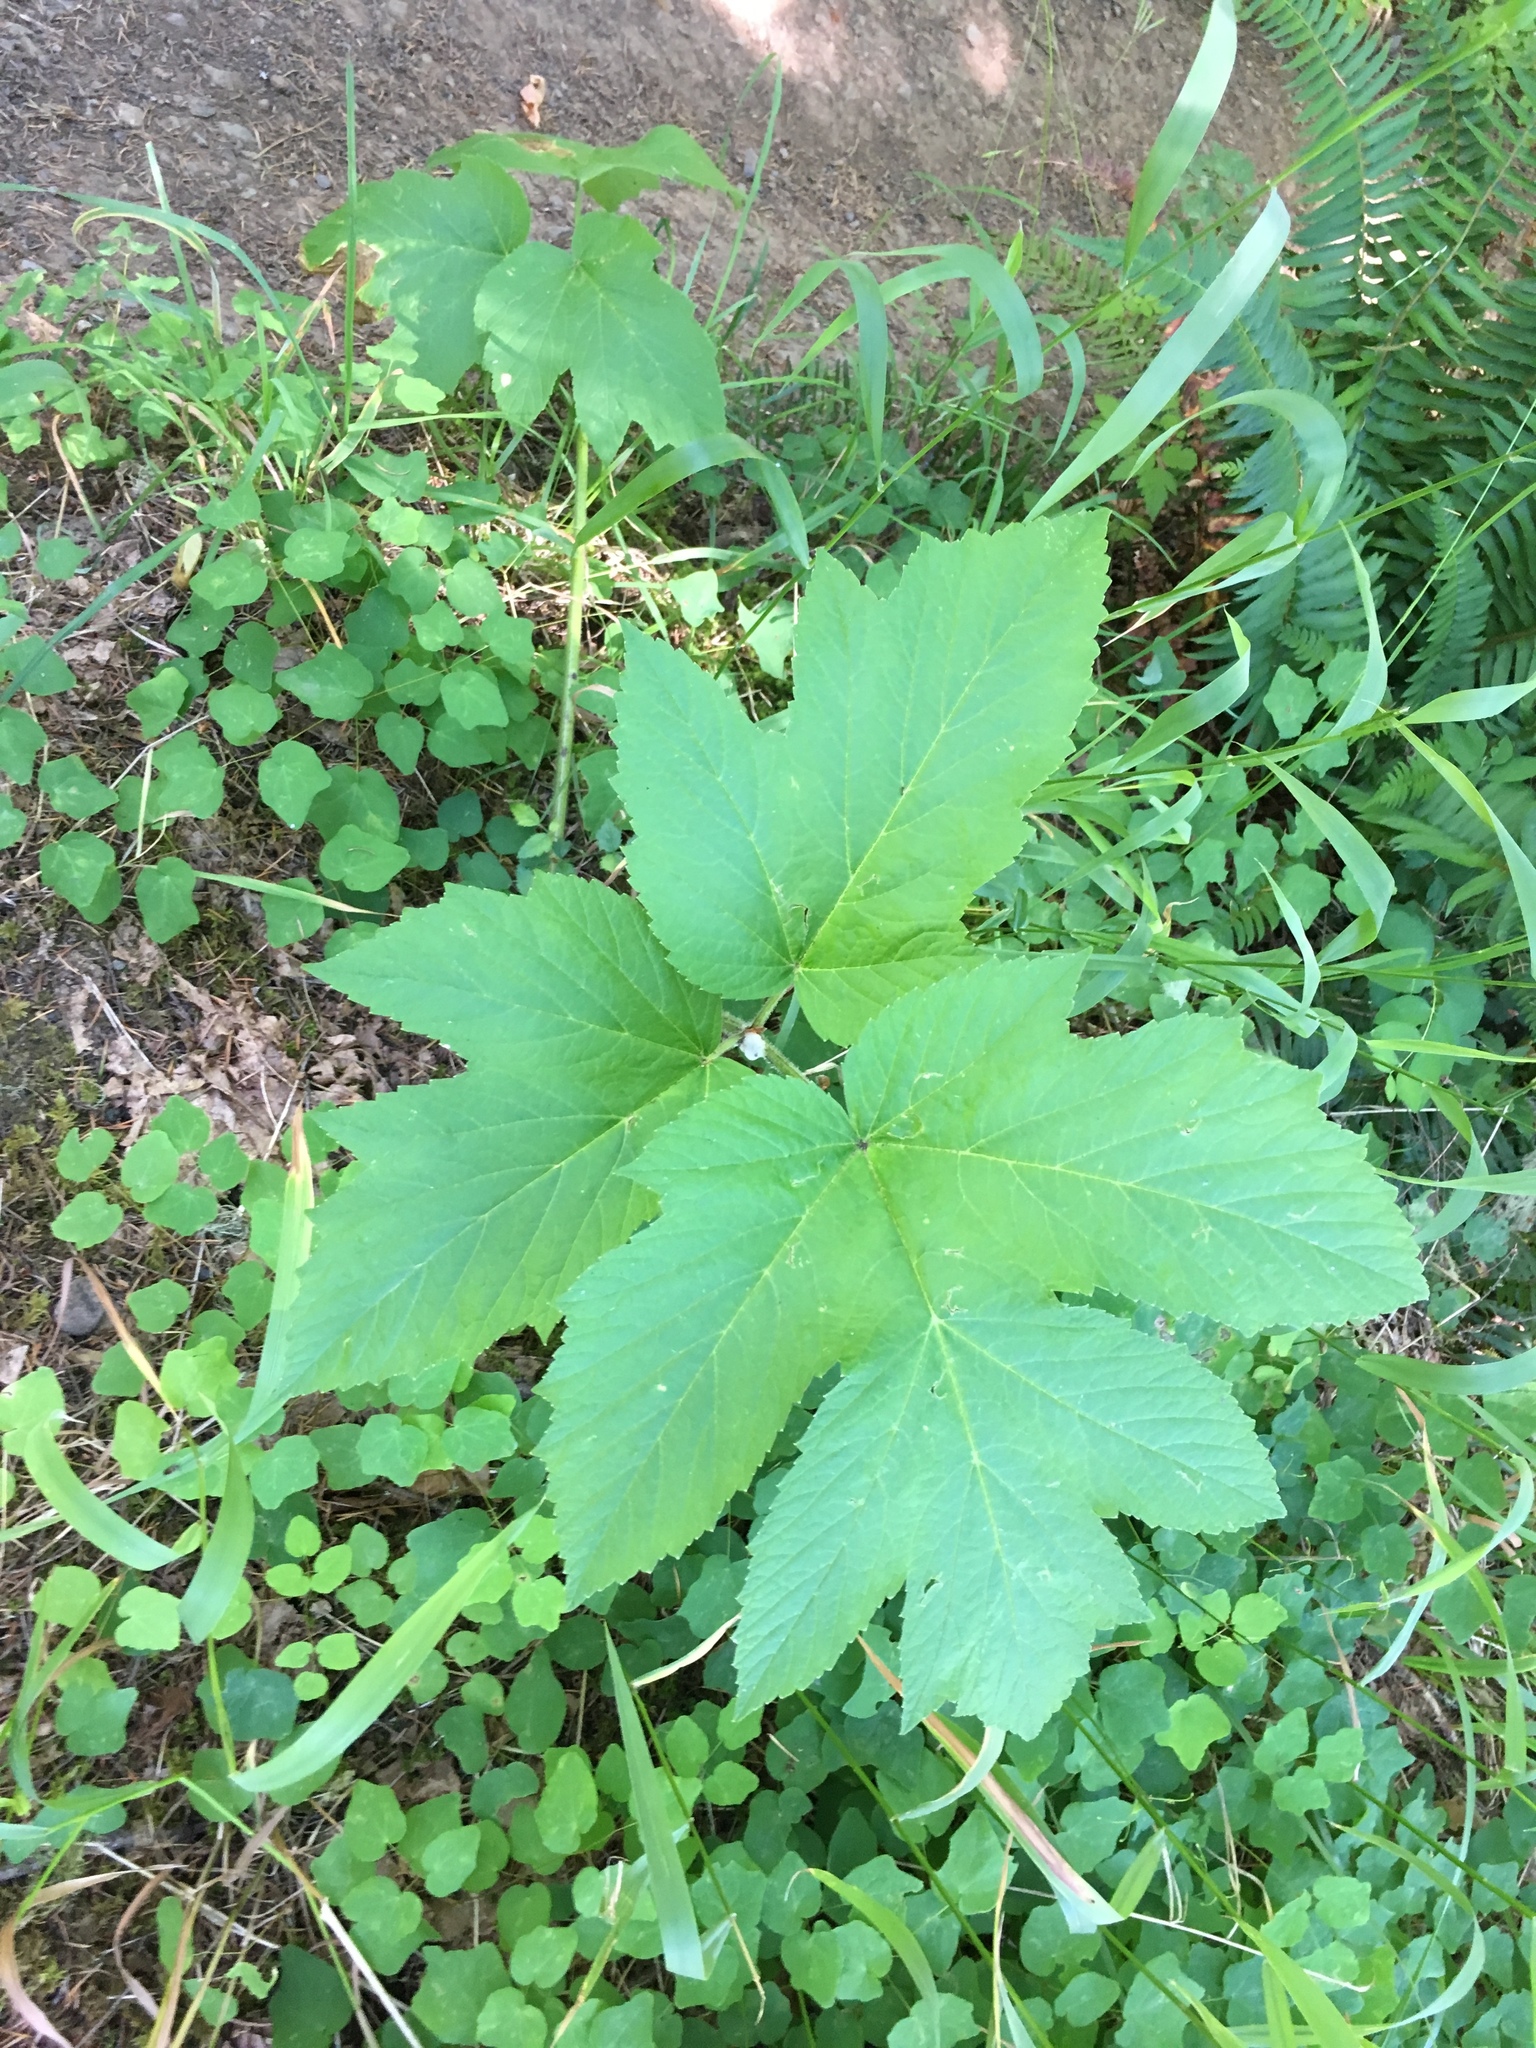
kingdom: Plantae
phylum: Tracheophyta
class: Magnoliopsida
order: Apiales
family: Apiaceae
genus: Heracleum
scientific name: Heracleum maximum
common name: American cow parsnip
